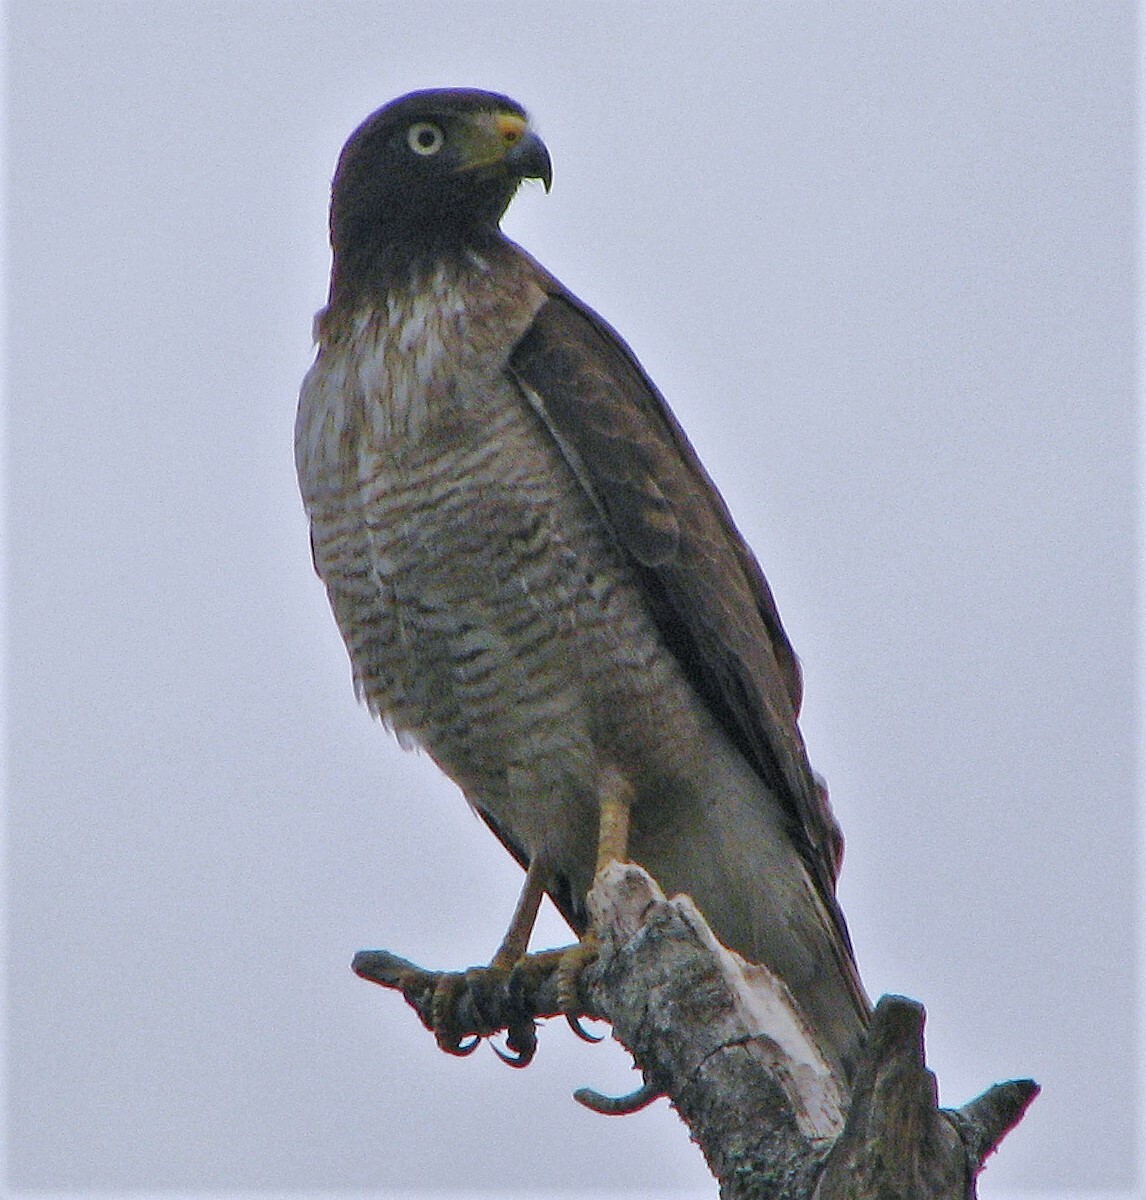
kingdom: Animalia
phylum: Chordata
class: Aves
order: Accipitriformes
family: Accipitridae
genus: Rupornis
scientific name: Rupornis magnirostris
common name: Roadside hawk
